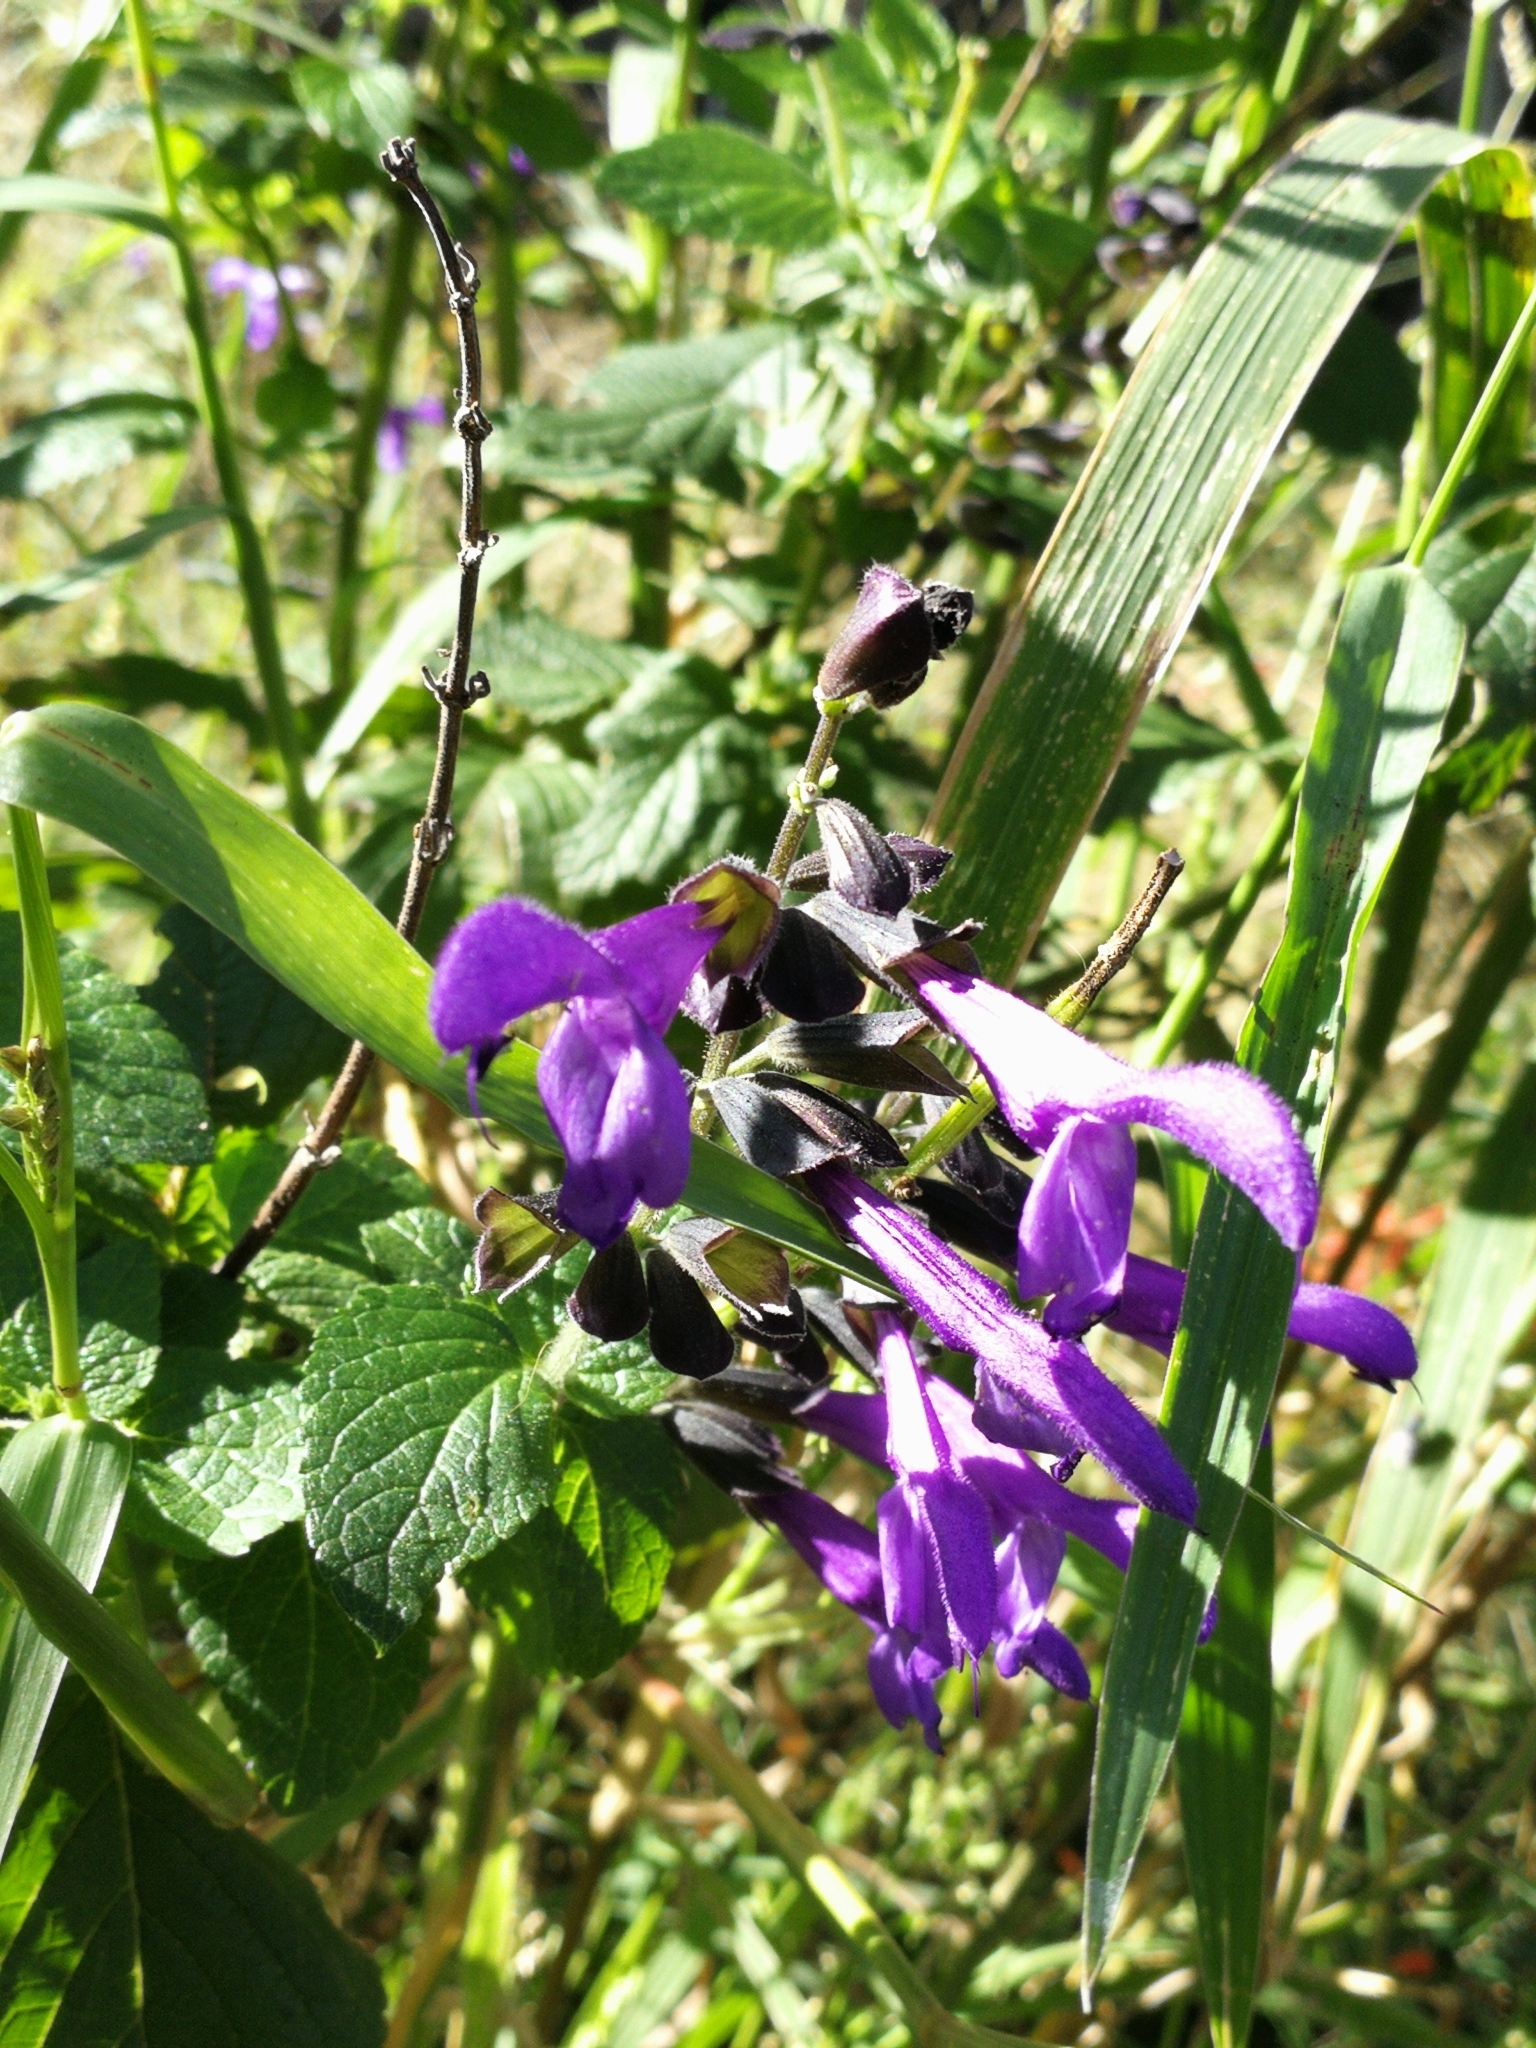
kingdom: Plantae
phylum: Tracheophyta
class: Magnoliopsida
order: Lamiales
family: Lamiaceae
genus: Salvia
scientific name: Salvia guaranitica
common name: Anise-scented sage
